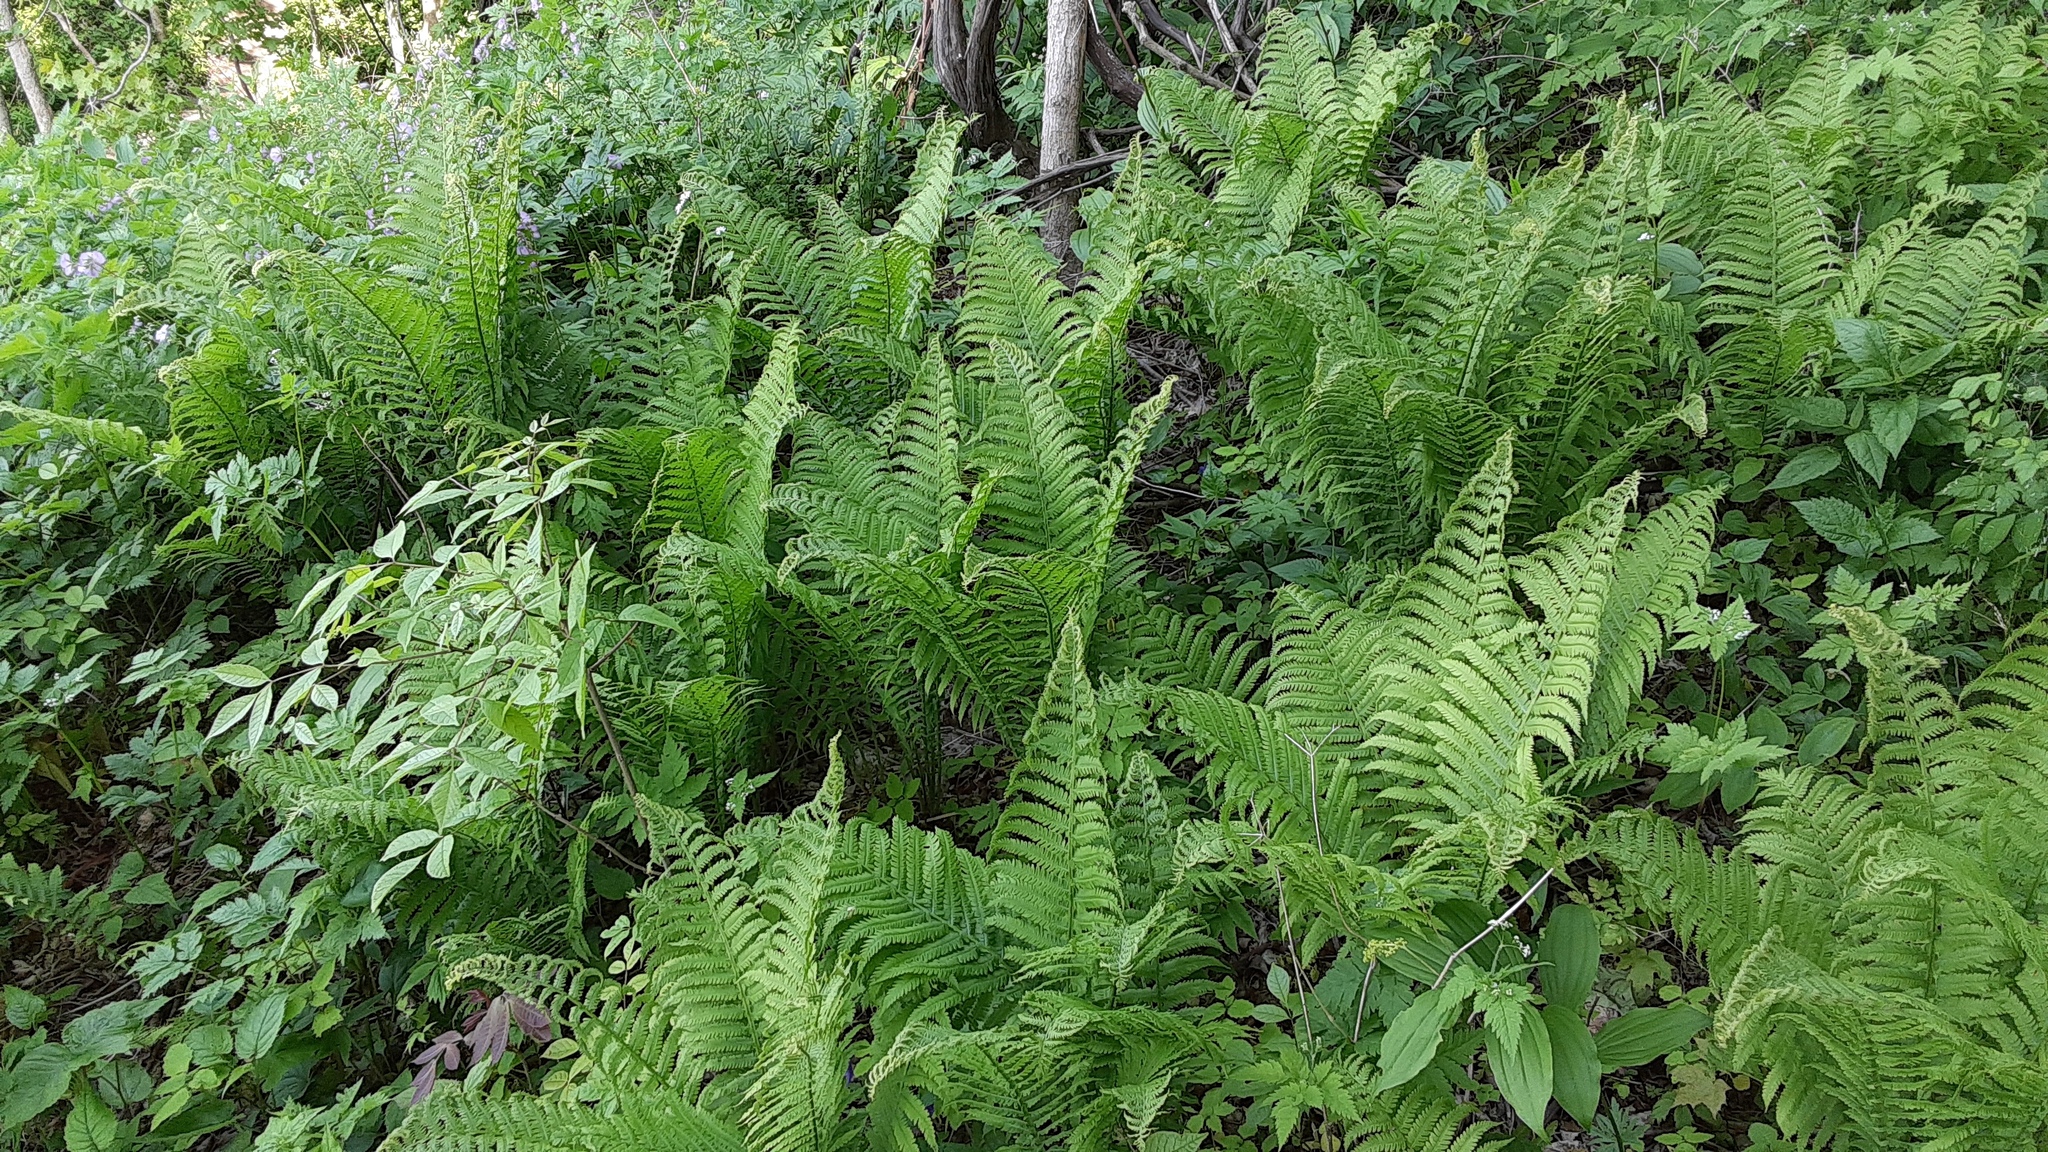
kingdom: Plantae
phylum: Tracheophyta
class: Polypodiopsida
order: Polypodiales
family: Onocleaceae
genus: Matteuccia
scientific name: Matteuccia struthiopteris
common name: Ostrich fern
